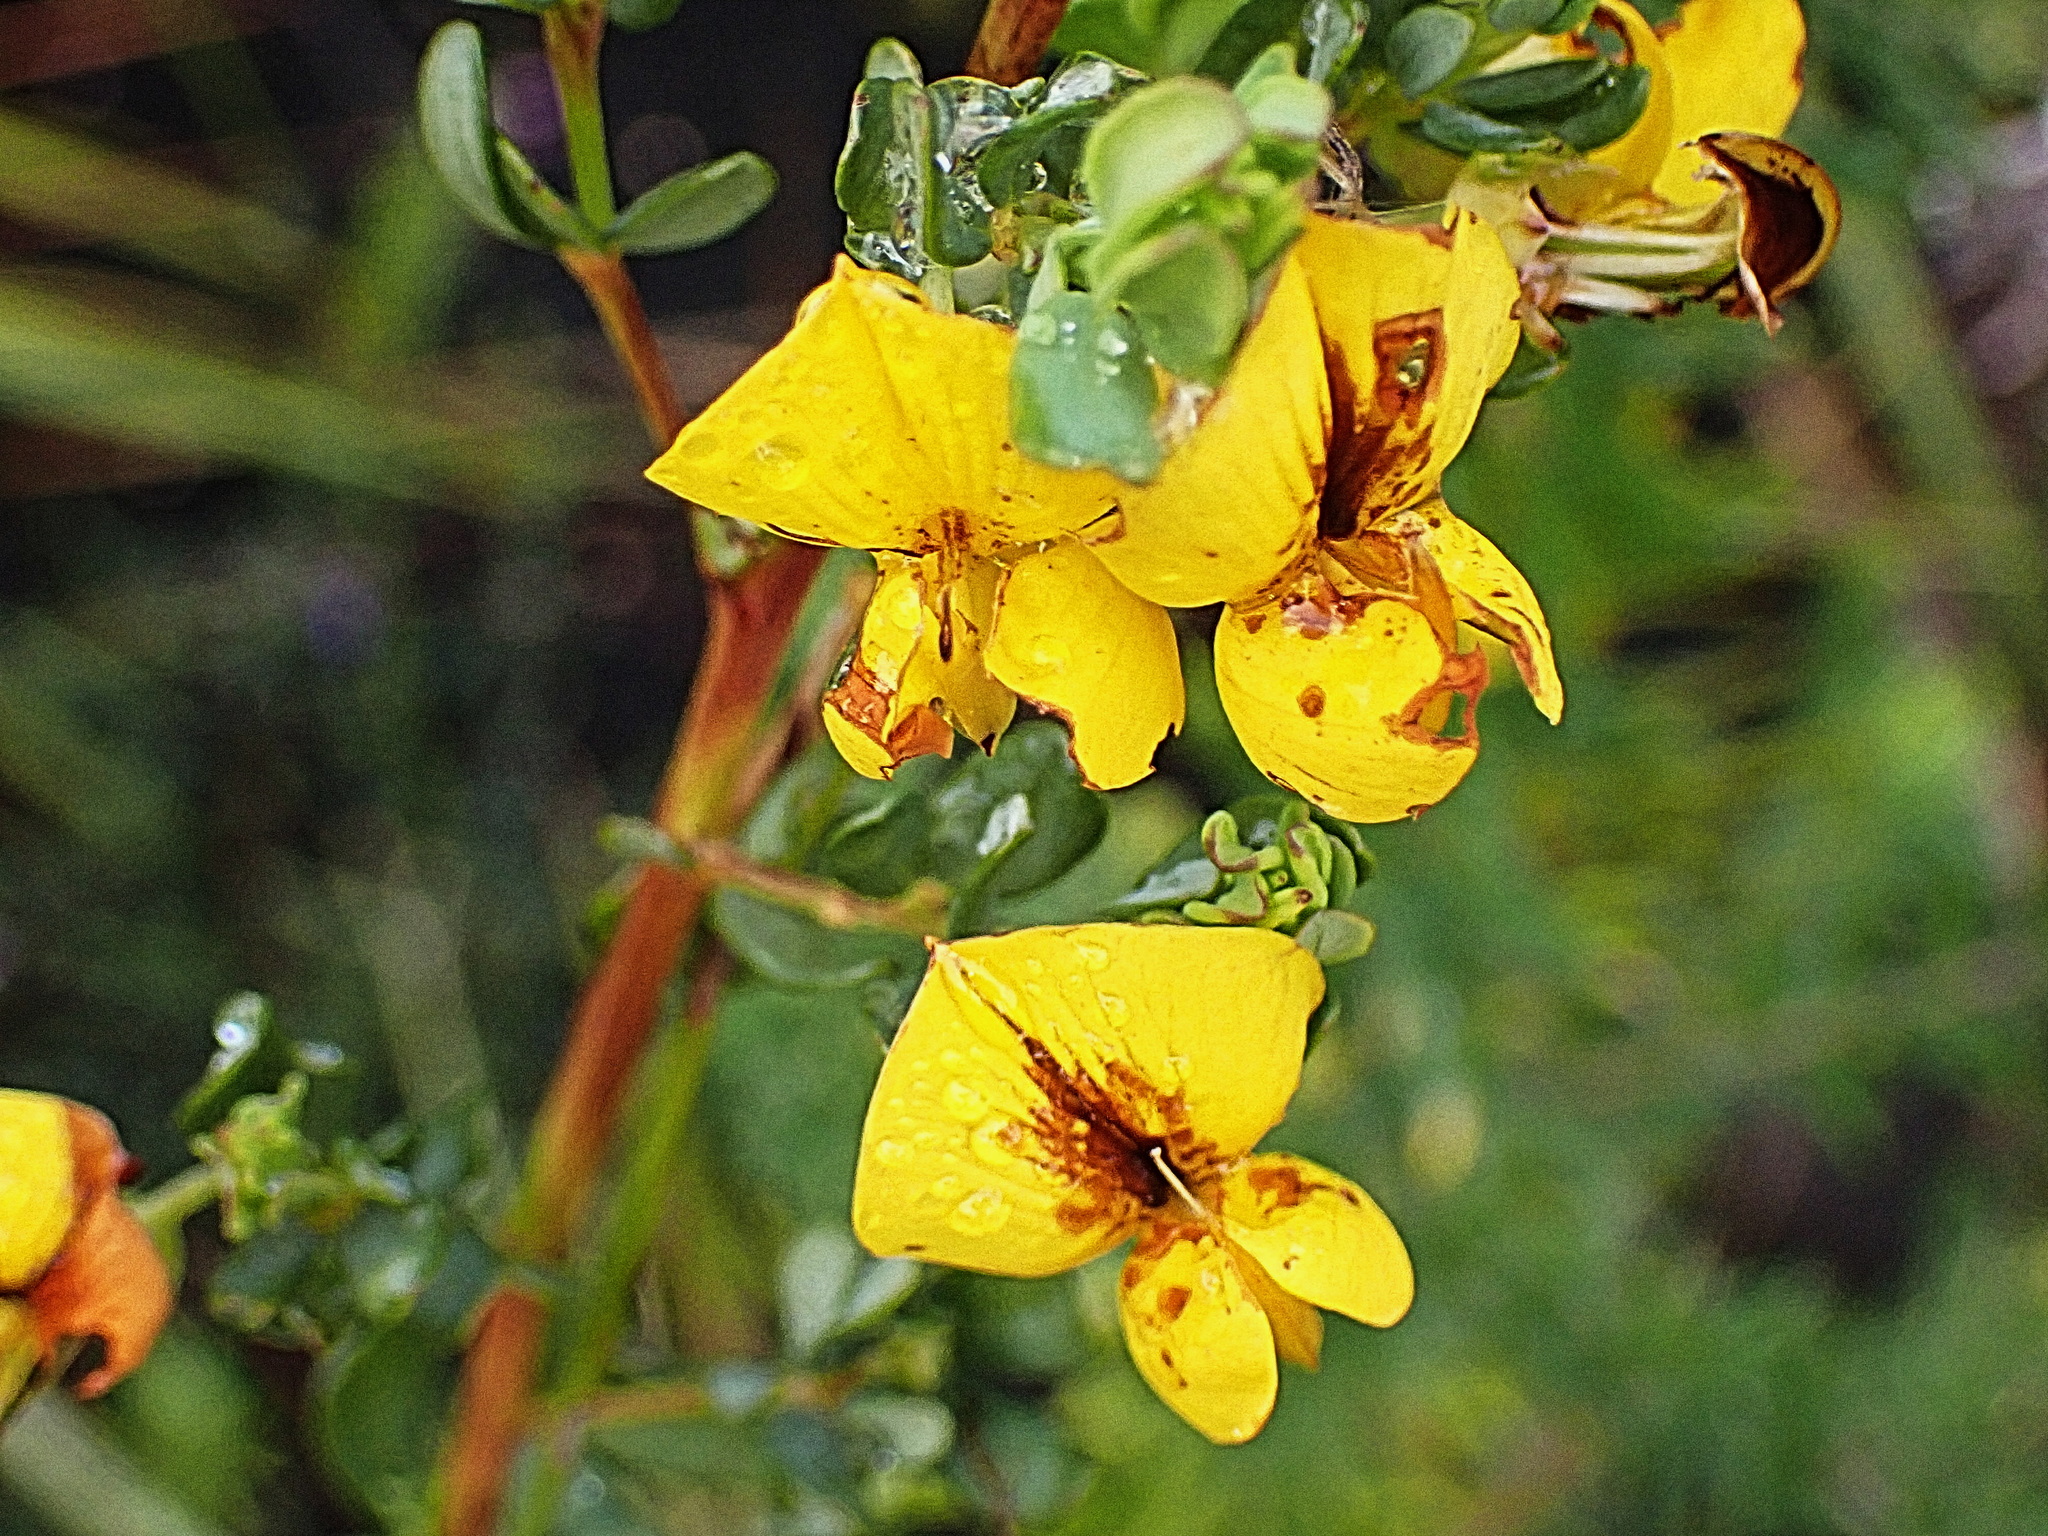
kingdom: Plantae
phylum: Tracheophyta
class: Magnoliopsida
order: Fabales
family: Fabaceae
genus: Cyclopia
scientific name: Cyclopia subternata
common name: Honeybush tea
